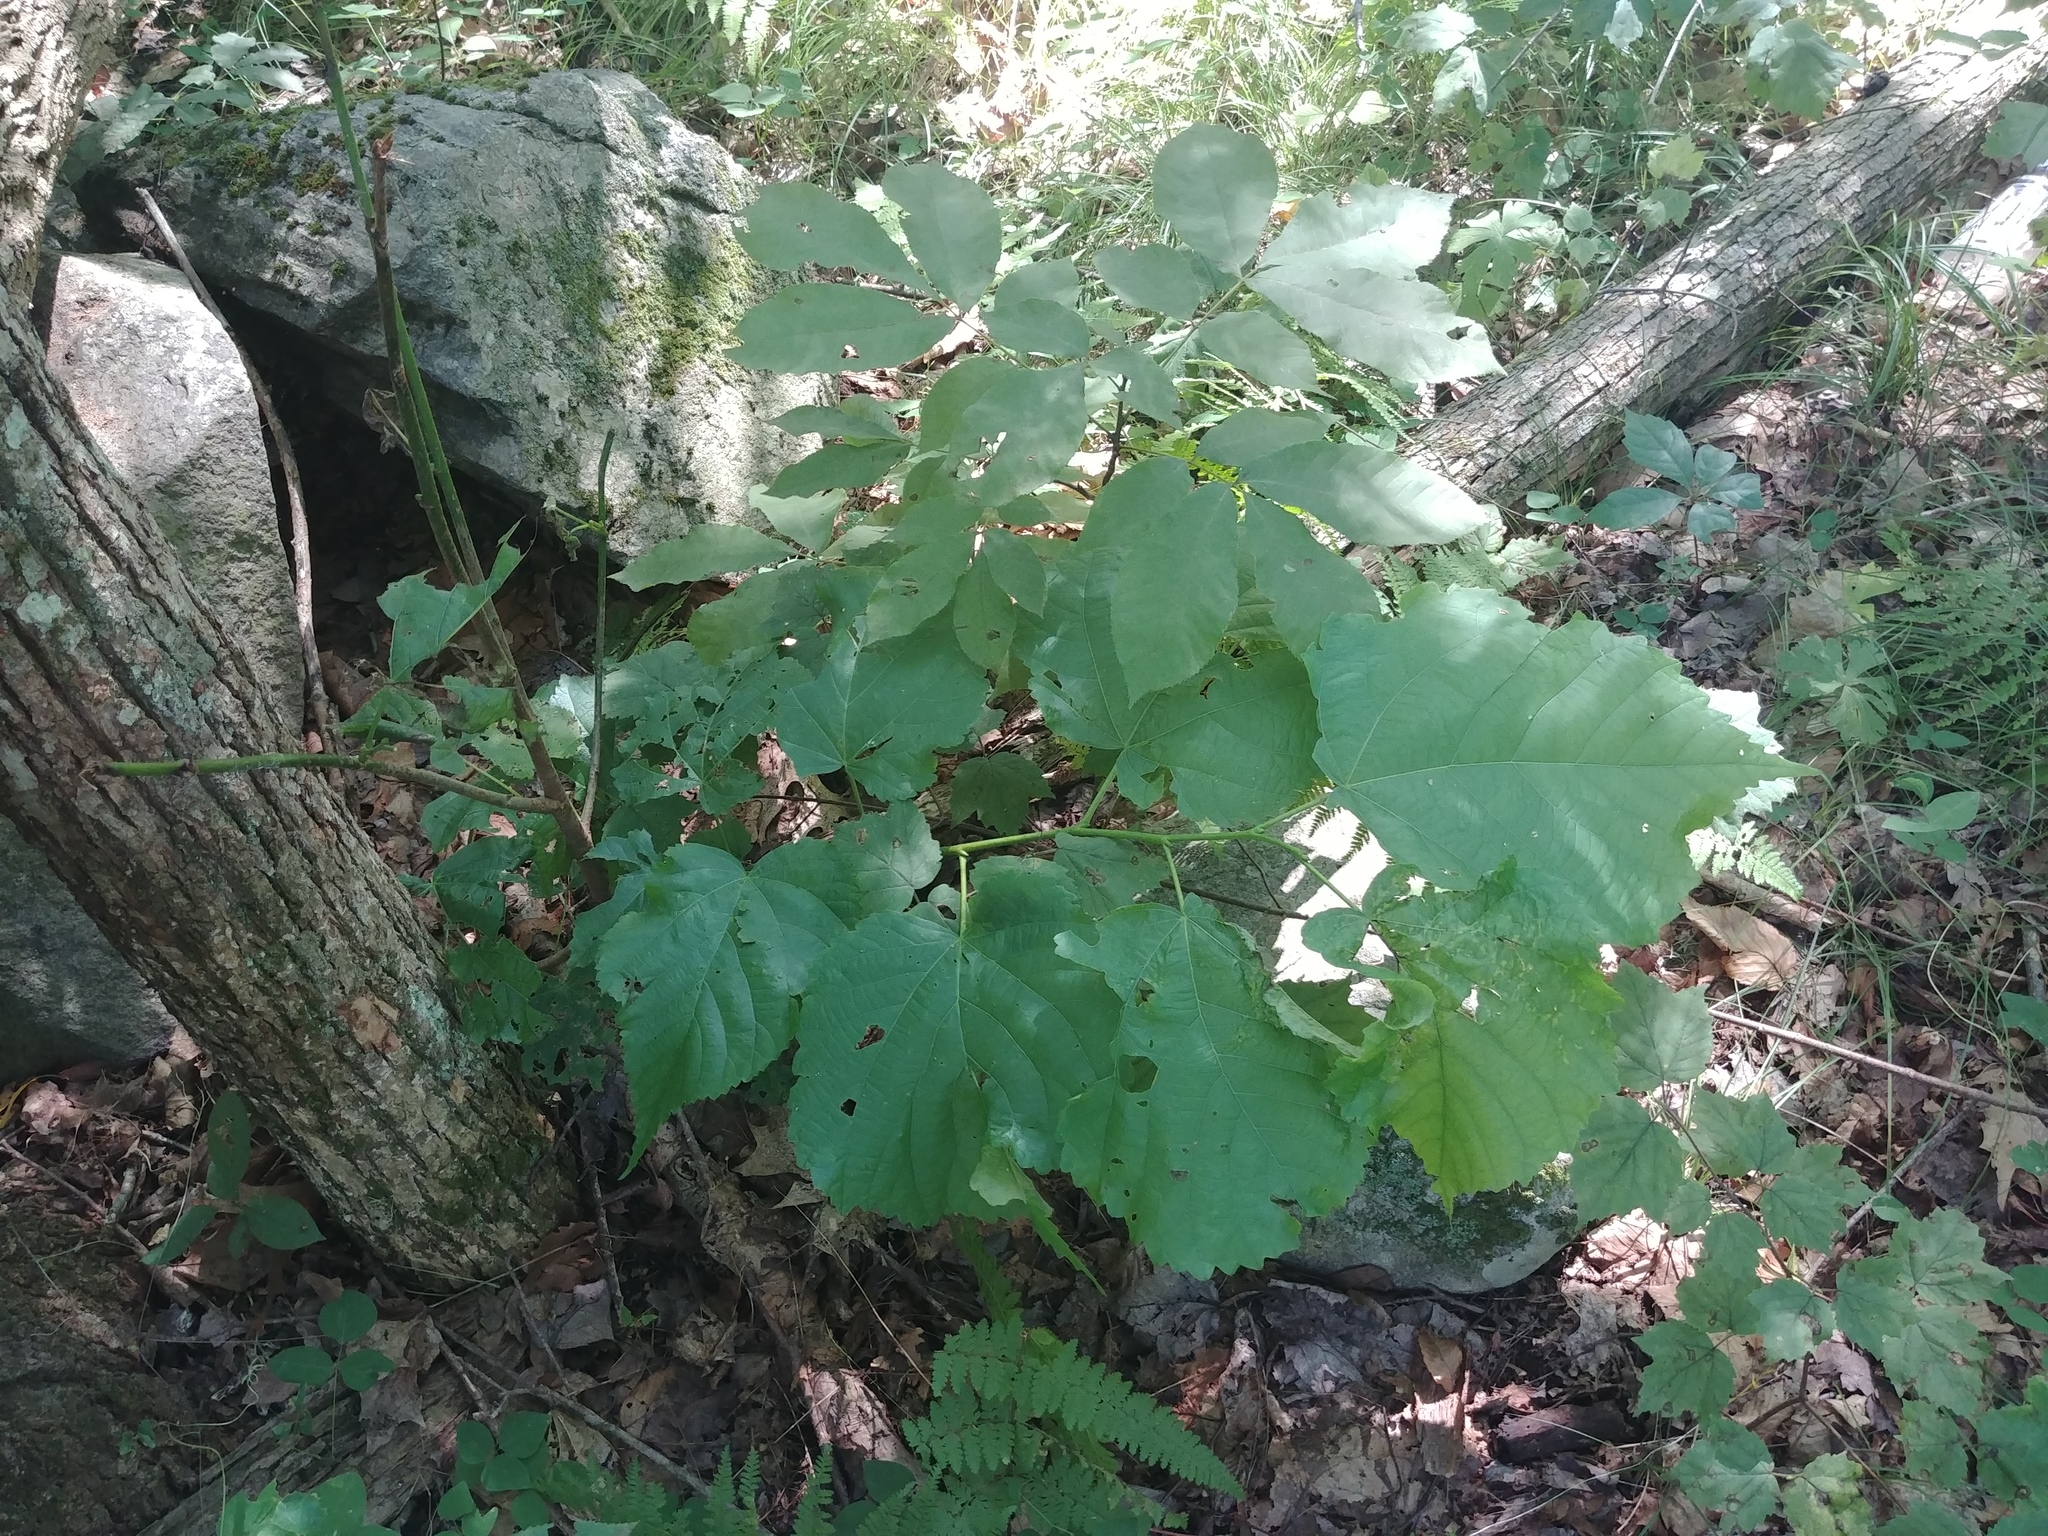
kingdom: Plantae
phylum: Tracheophyta
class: Magnoliopsida
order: Malvales
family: Malvaceae
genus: Tilia
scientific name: Tilia americana
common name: Basswood
